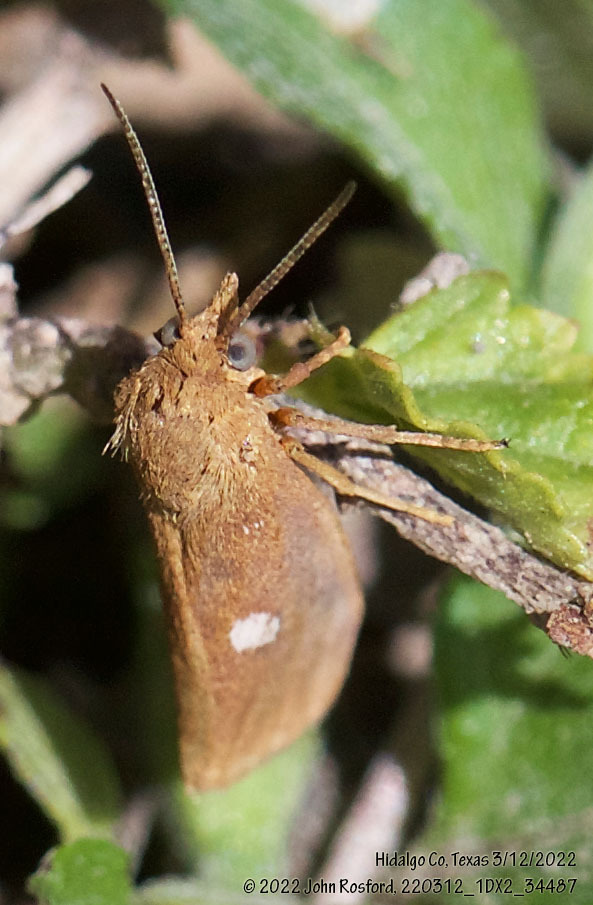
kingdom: Animalia
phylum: Arthropoda
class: Insecta
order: Lepidoptera
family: Erebidae
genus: Virbia
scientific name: Virbia aurantiaca
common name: Orange virbia moth
